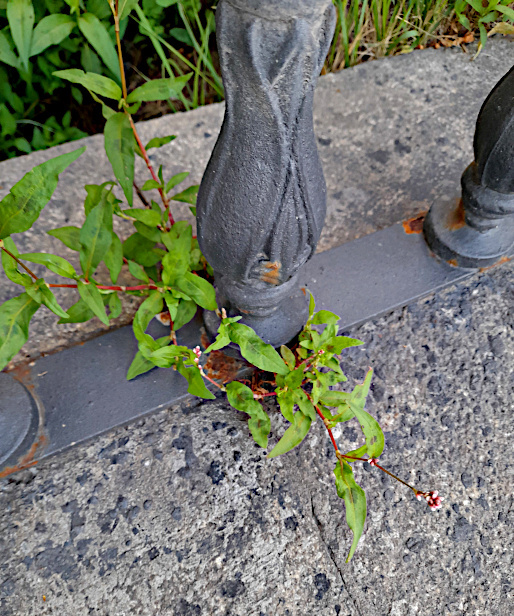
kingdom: Plantae
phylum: Tracheophyta
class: Magnoliopsida
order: Caryophyllales
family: Polygonaceae
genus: Persicaria
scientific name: Persicaria maculosa
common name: Redshank
